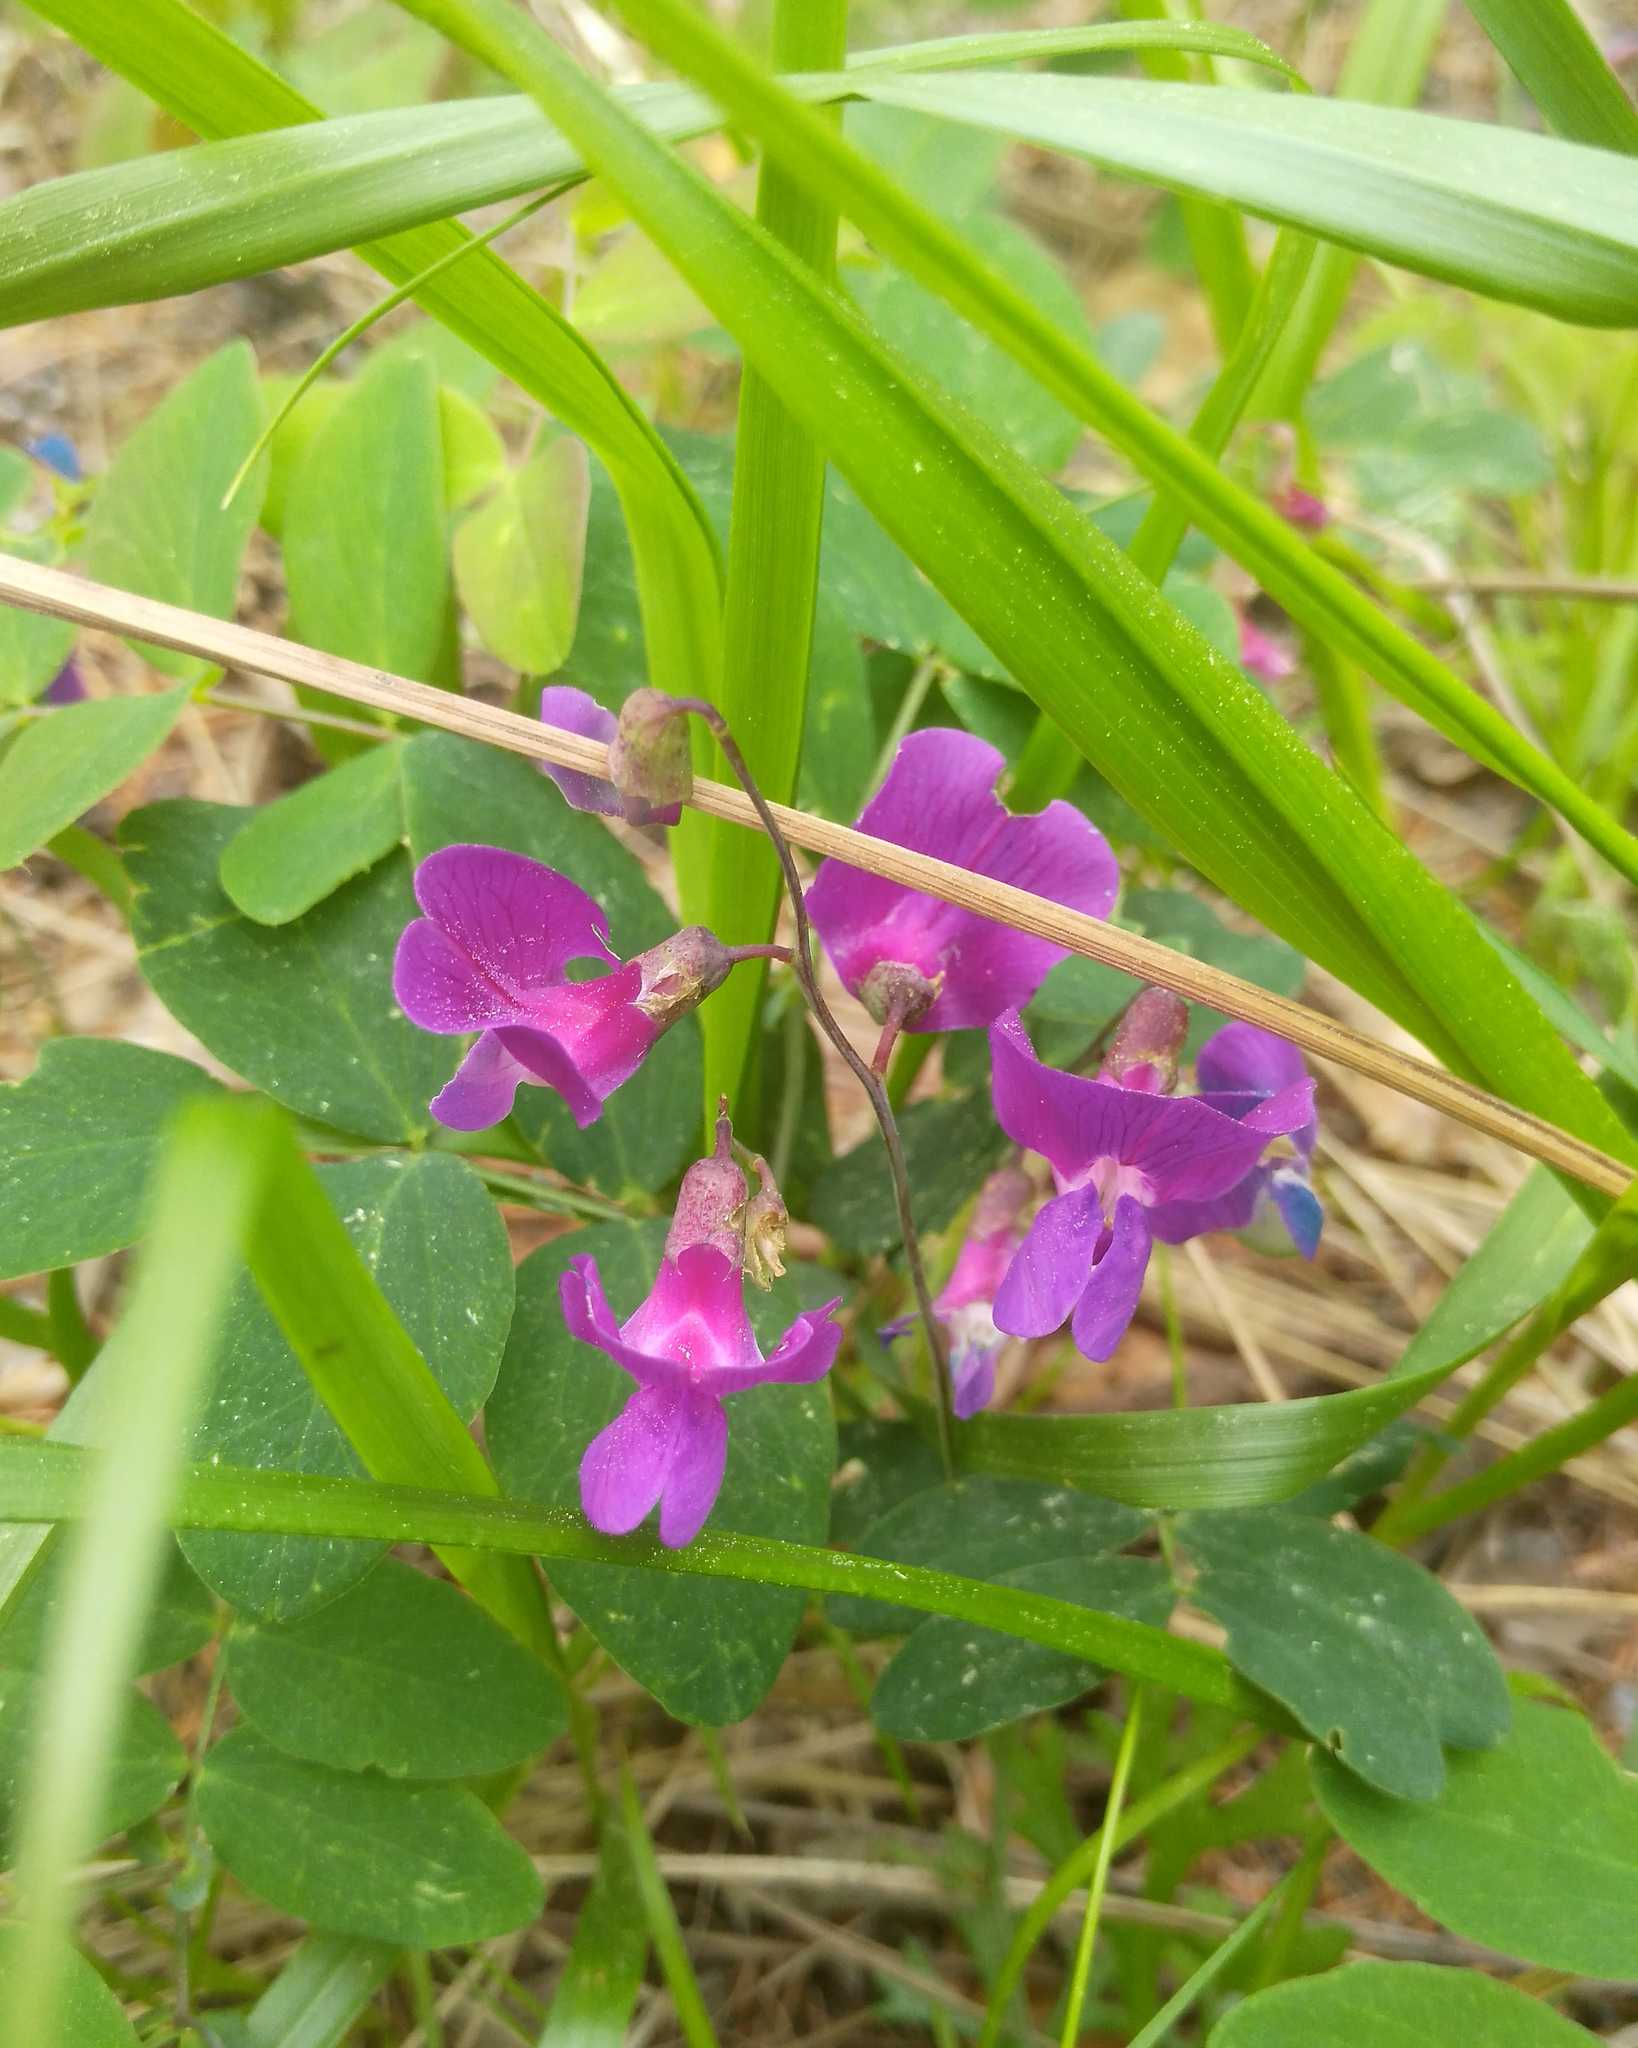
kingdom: Plantae
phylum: Tracheophyta
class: Magnoliopsida
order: Fabales
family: Fabaceae
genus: Lathyrus
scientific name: Lathyrus humilis
